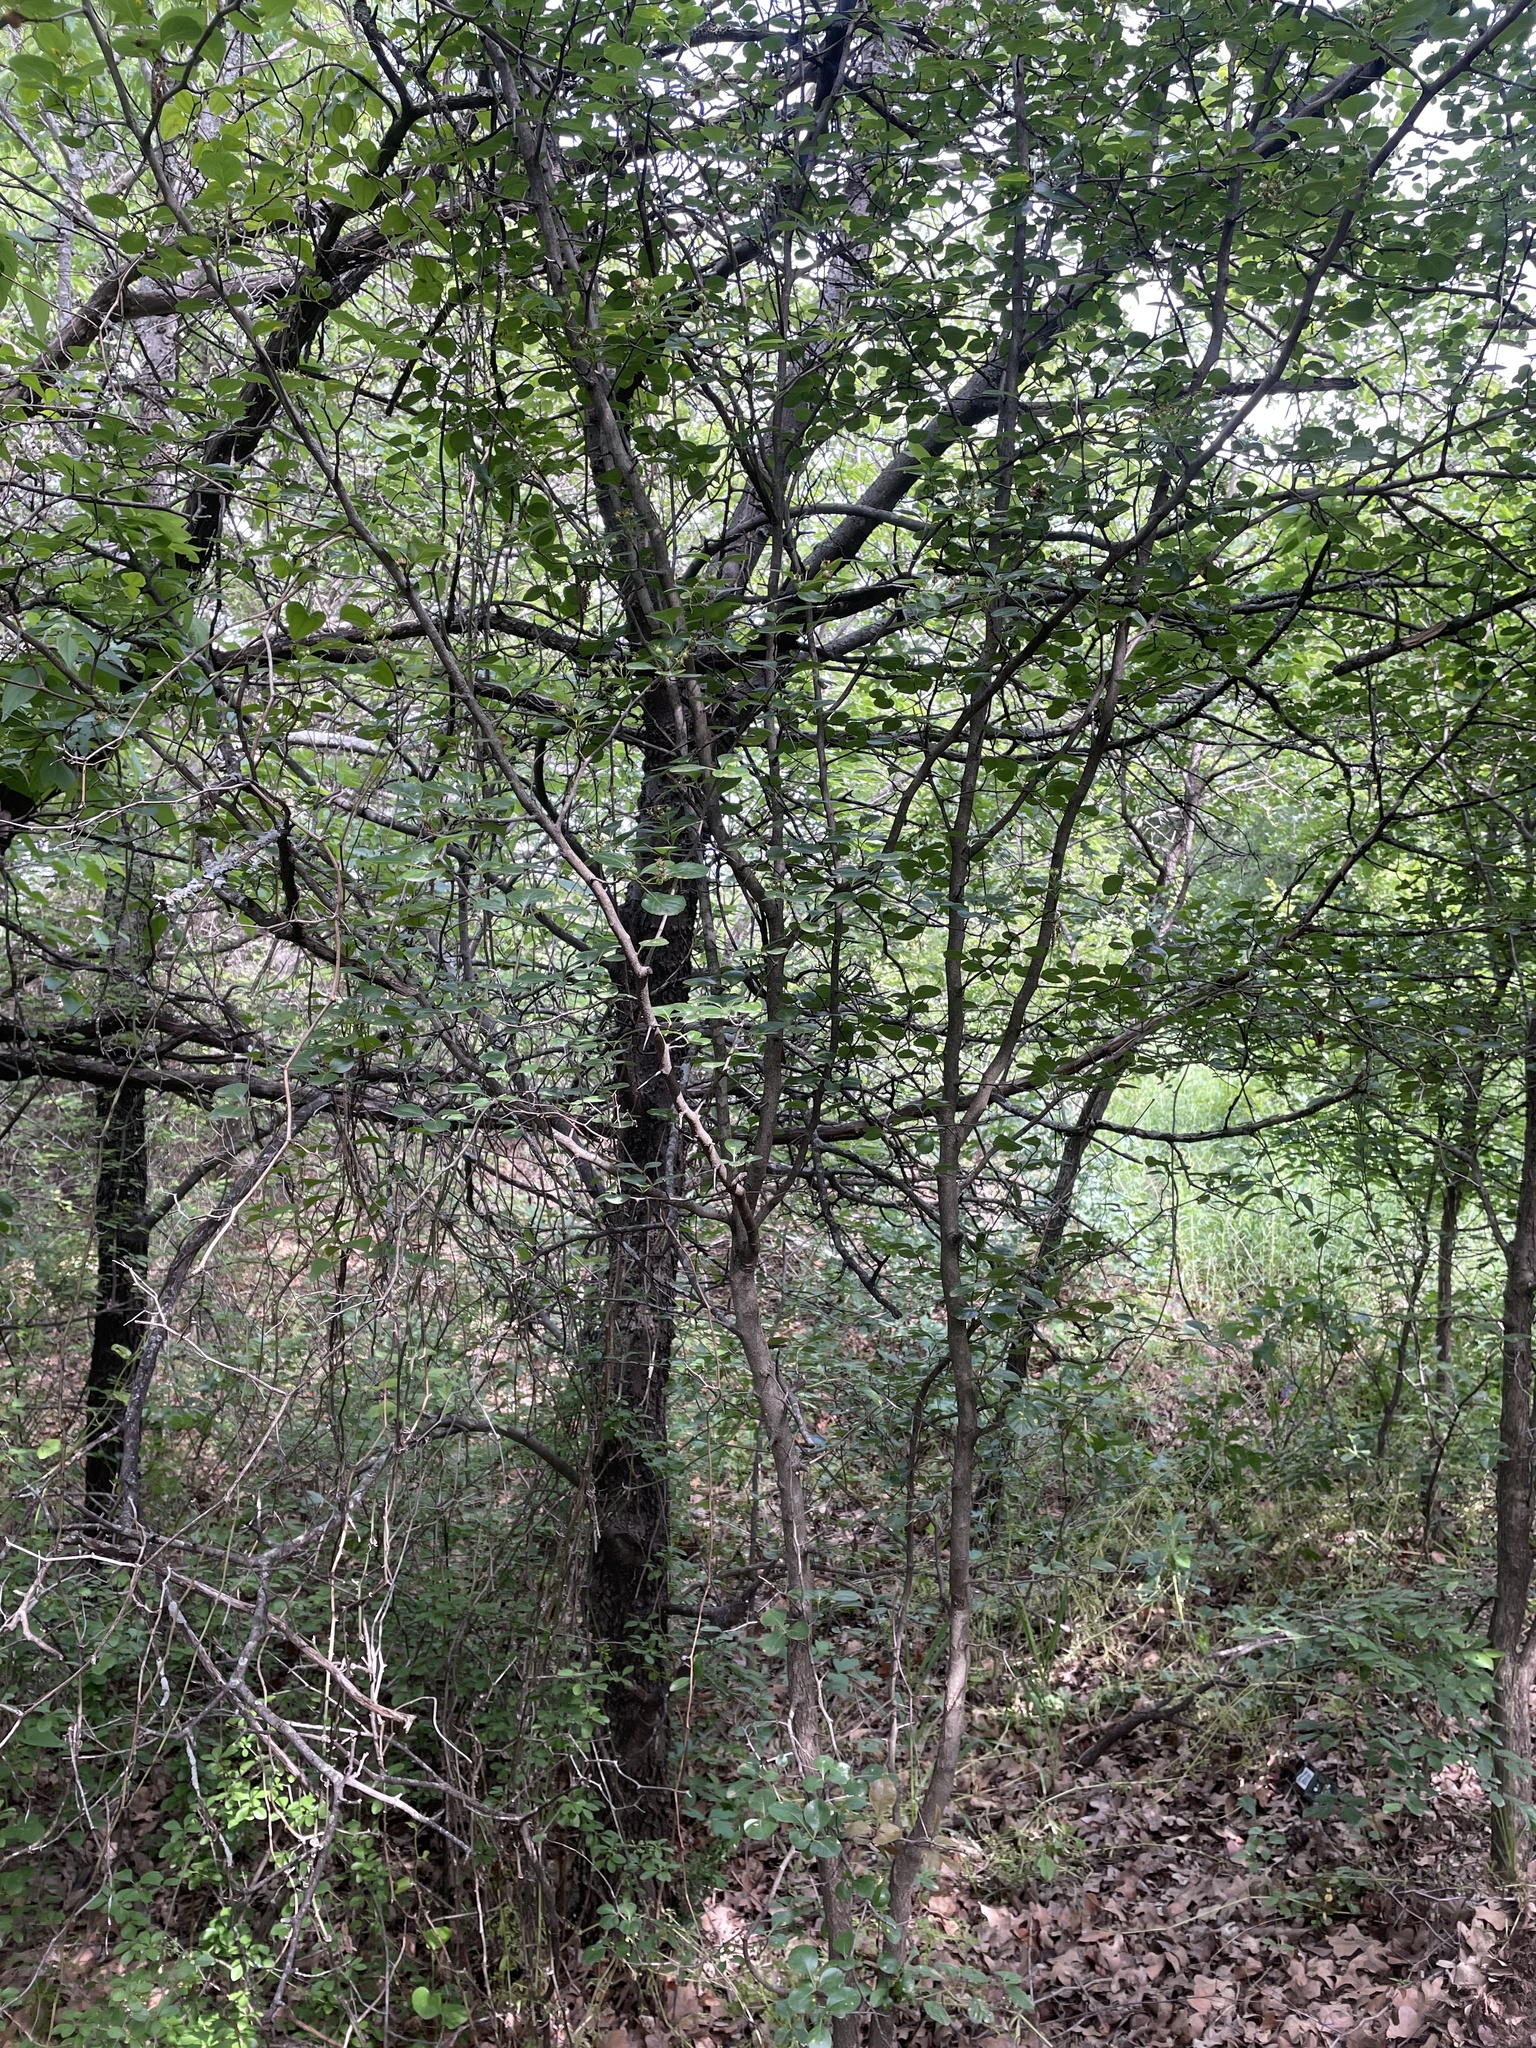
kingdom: Plantae
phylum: Tracheophyta
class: Magnoliopsida
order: Rosales
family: Rosaceae
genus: Crataegus
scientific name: Crataegus viridis
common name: Southernthorn
